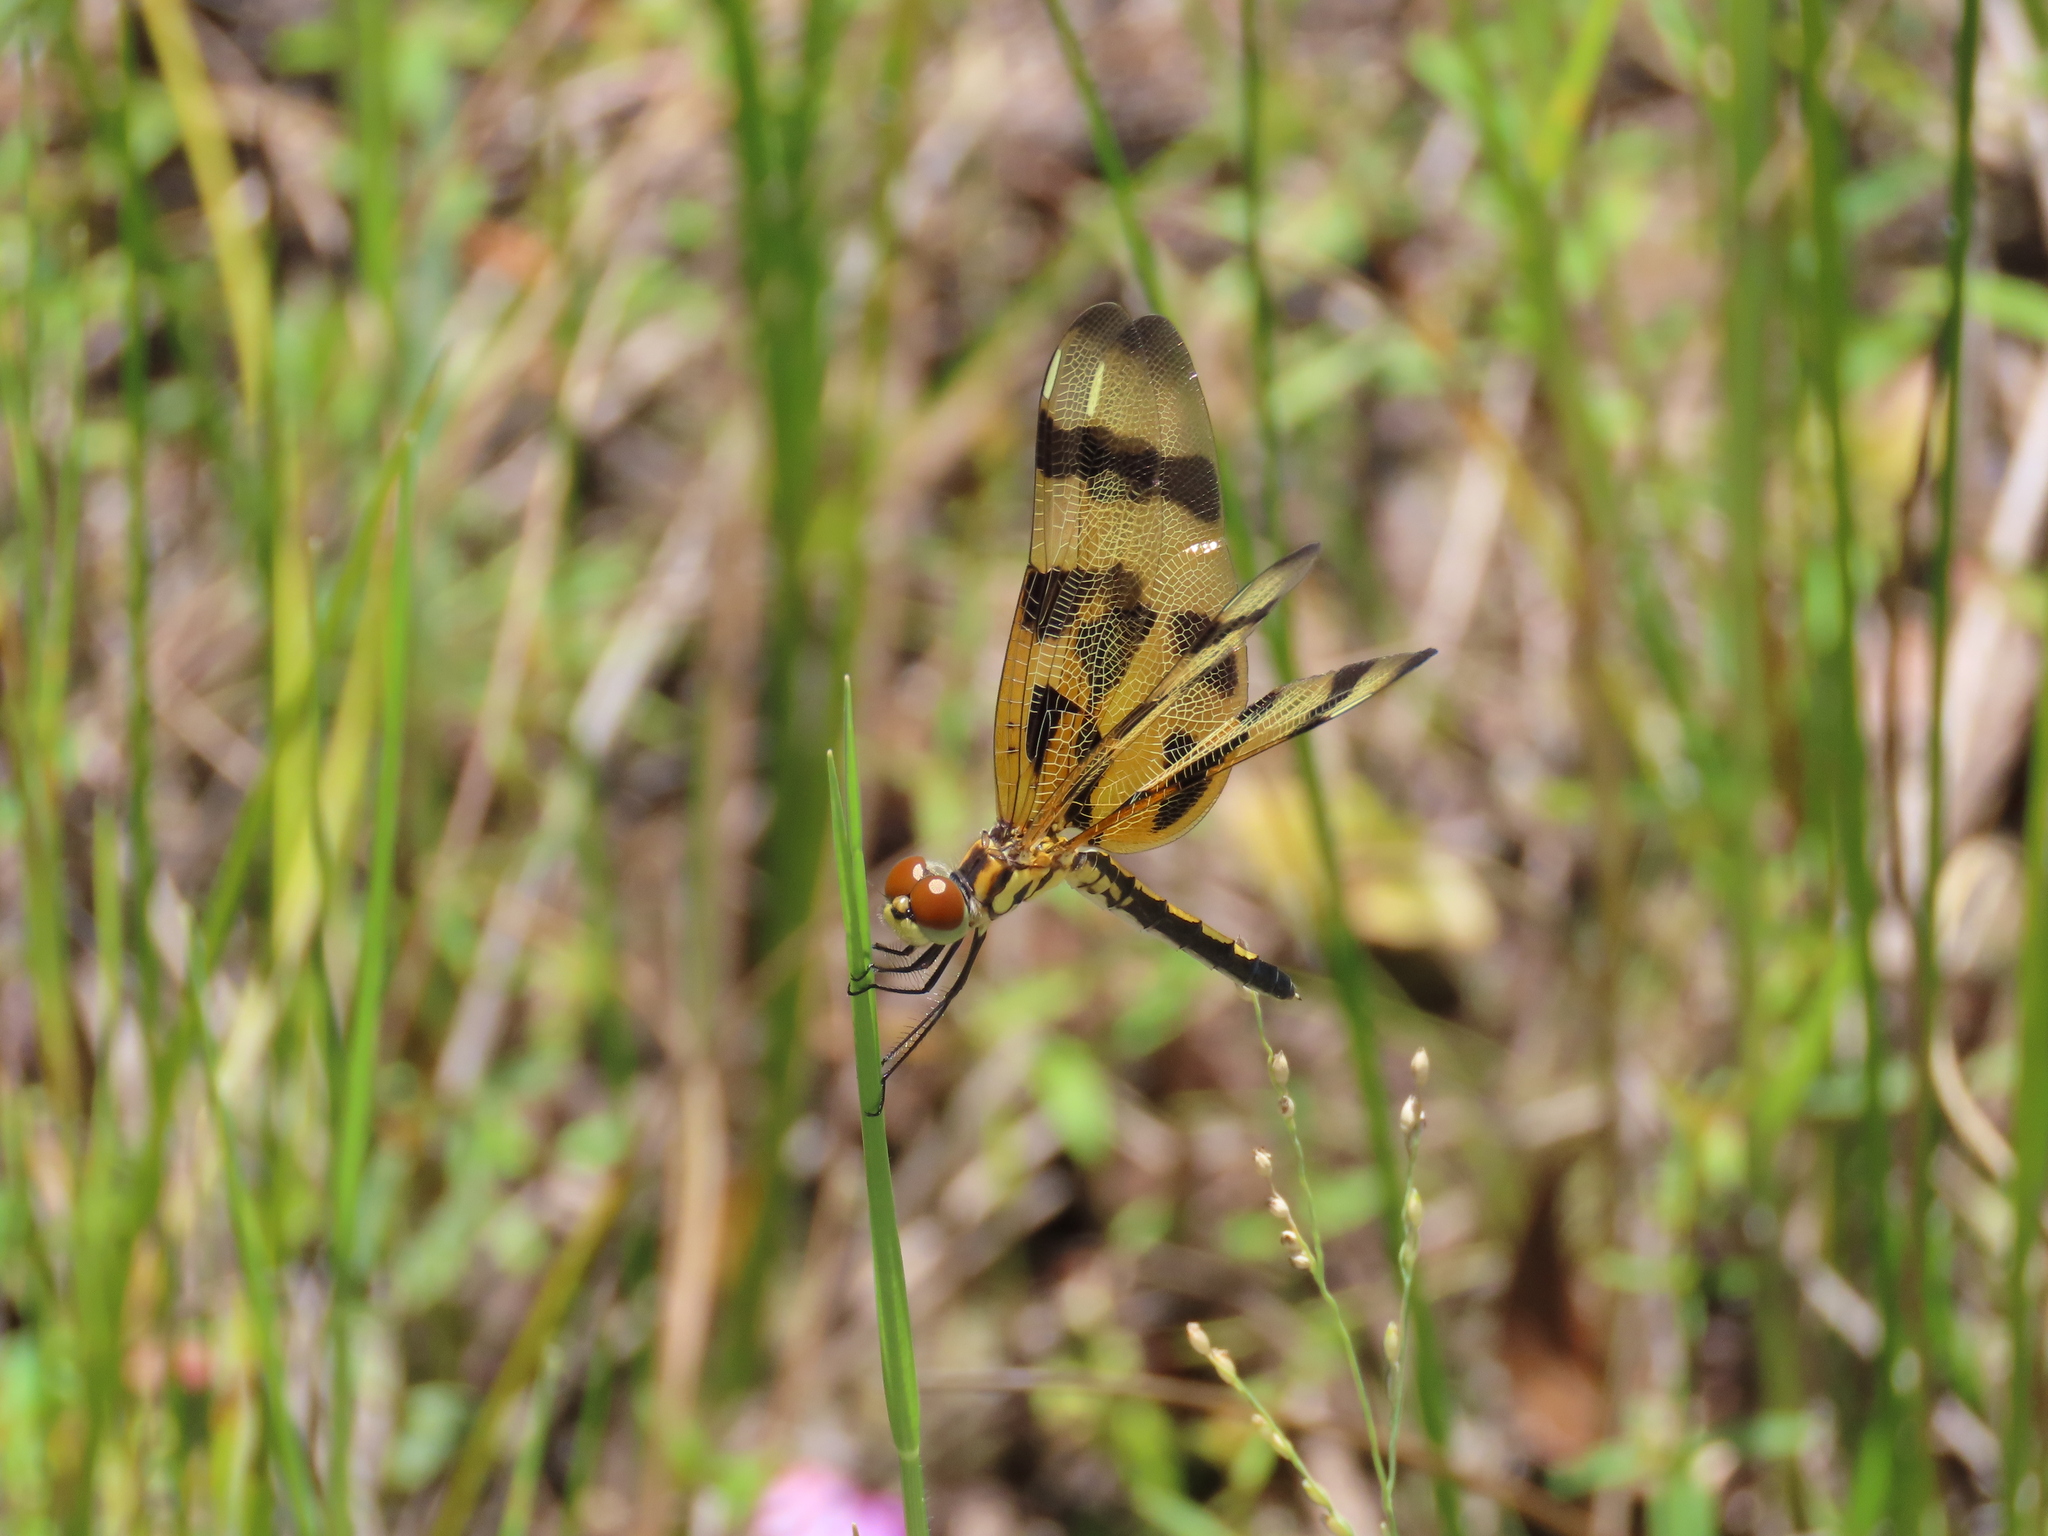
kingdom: Animalia
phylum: Arthropoda
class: Insecta
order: Odonata
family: Libellulidae
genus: Celithemis
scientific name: Celithemis eponina
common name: Halloween pennant
